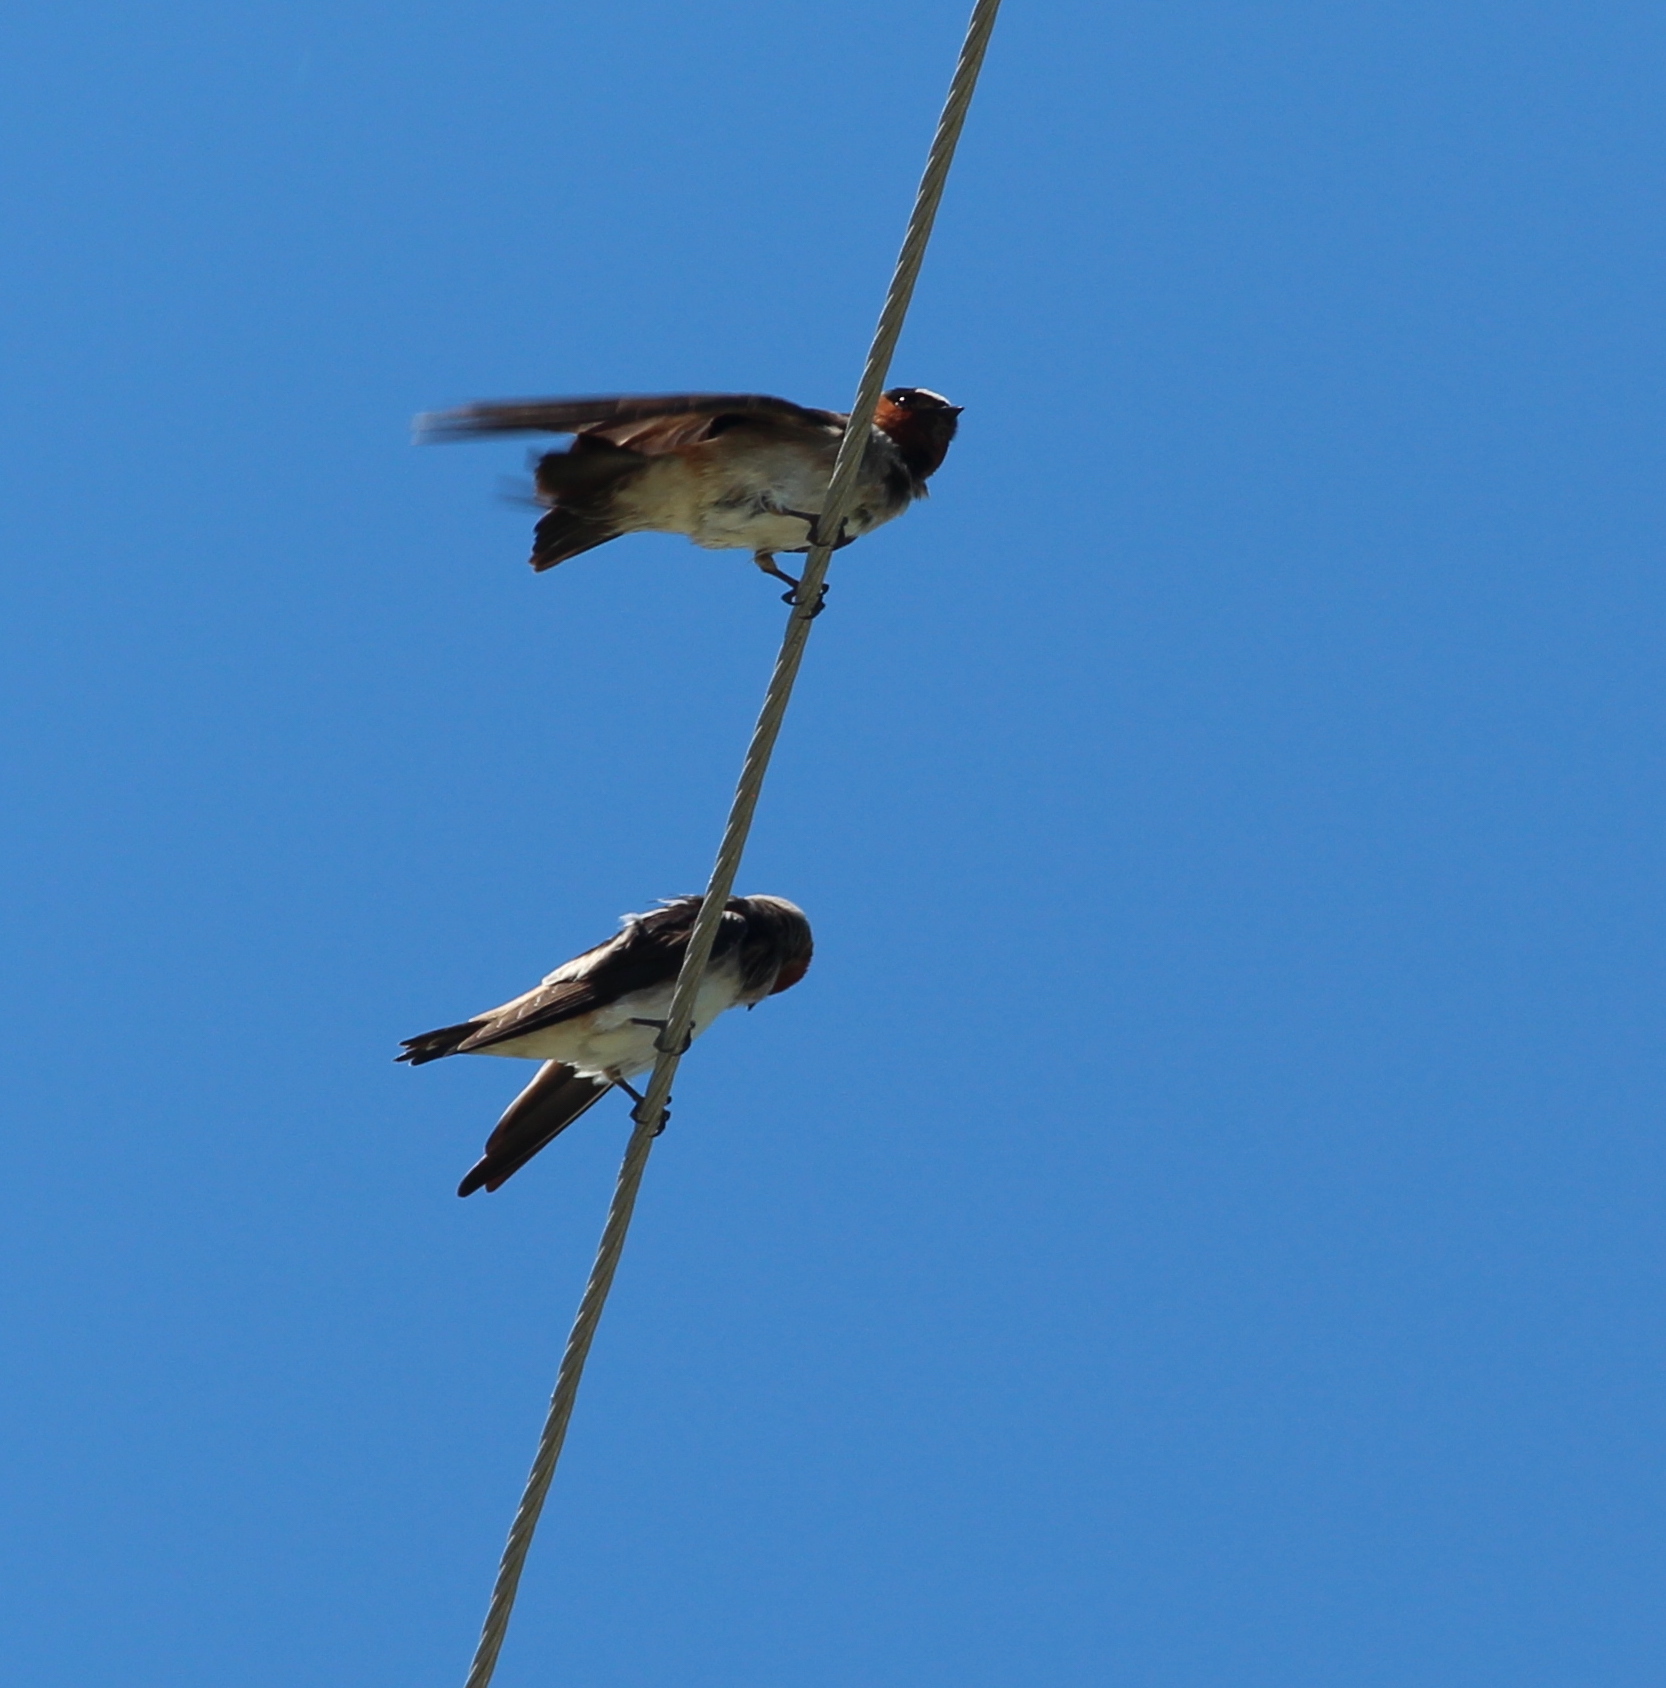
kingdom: Animalia
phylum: Chordata
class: Aves
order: Passeriformes
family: Hirundinidae
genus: Petrochelidon
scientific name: Petrochelidon pyrrhonota
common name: American cliff swallow
